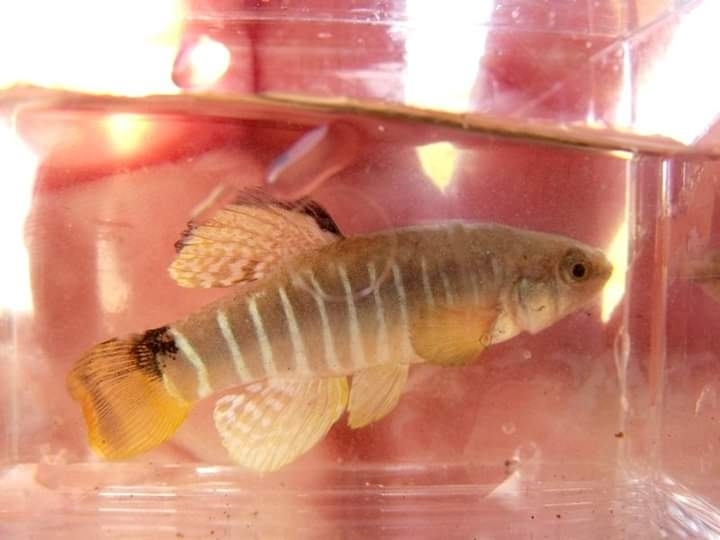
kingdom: Animalia
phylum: Chordata
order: Cyprinodontiformes
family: Cyprinodontidae
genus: Aphanius
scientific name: Aphanius fasciatus
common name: Mediterranean banded killifish
